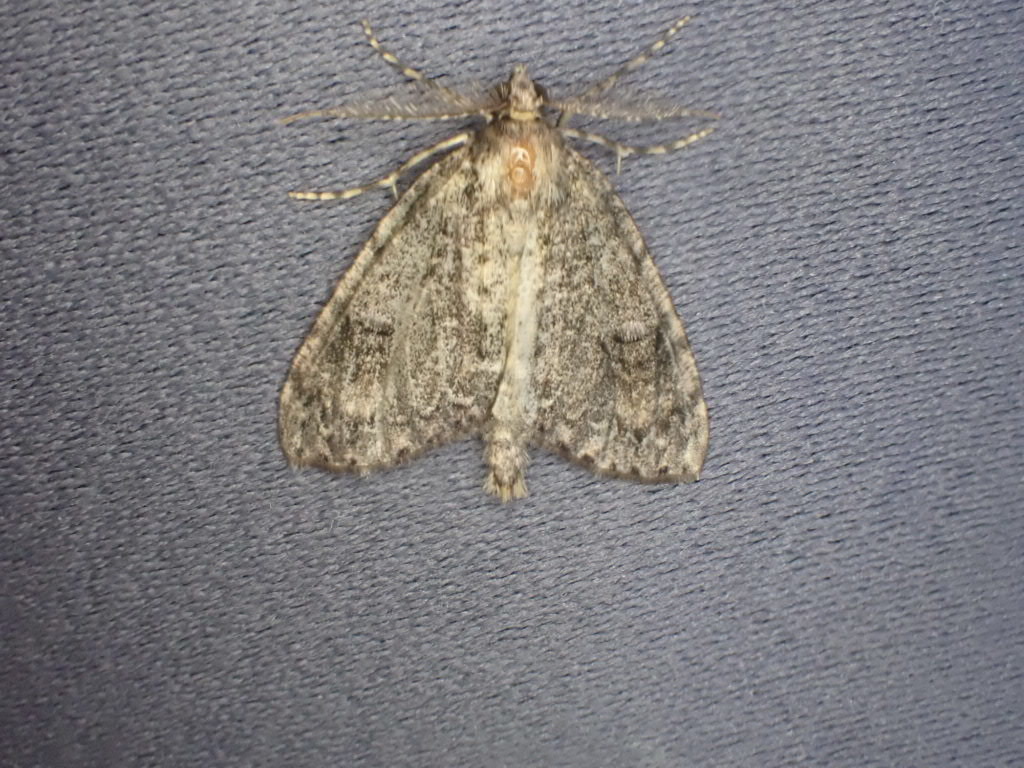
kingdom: Animalia
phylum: Arthropoda
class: Insecta
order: Lepidoptera
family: Geometridae
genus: Pseudocoremia
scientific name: Pseudocoremia suavis
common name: Common forest looper
